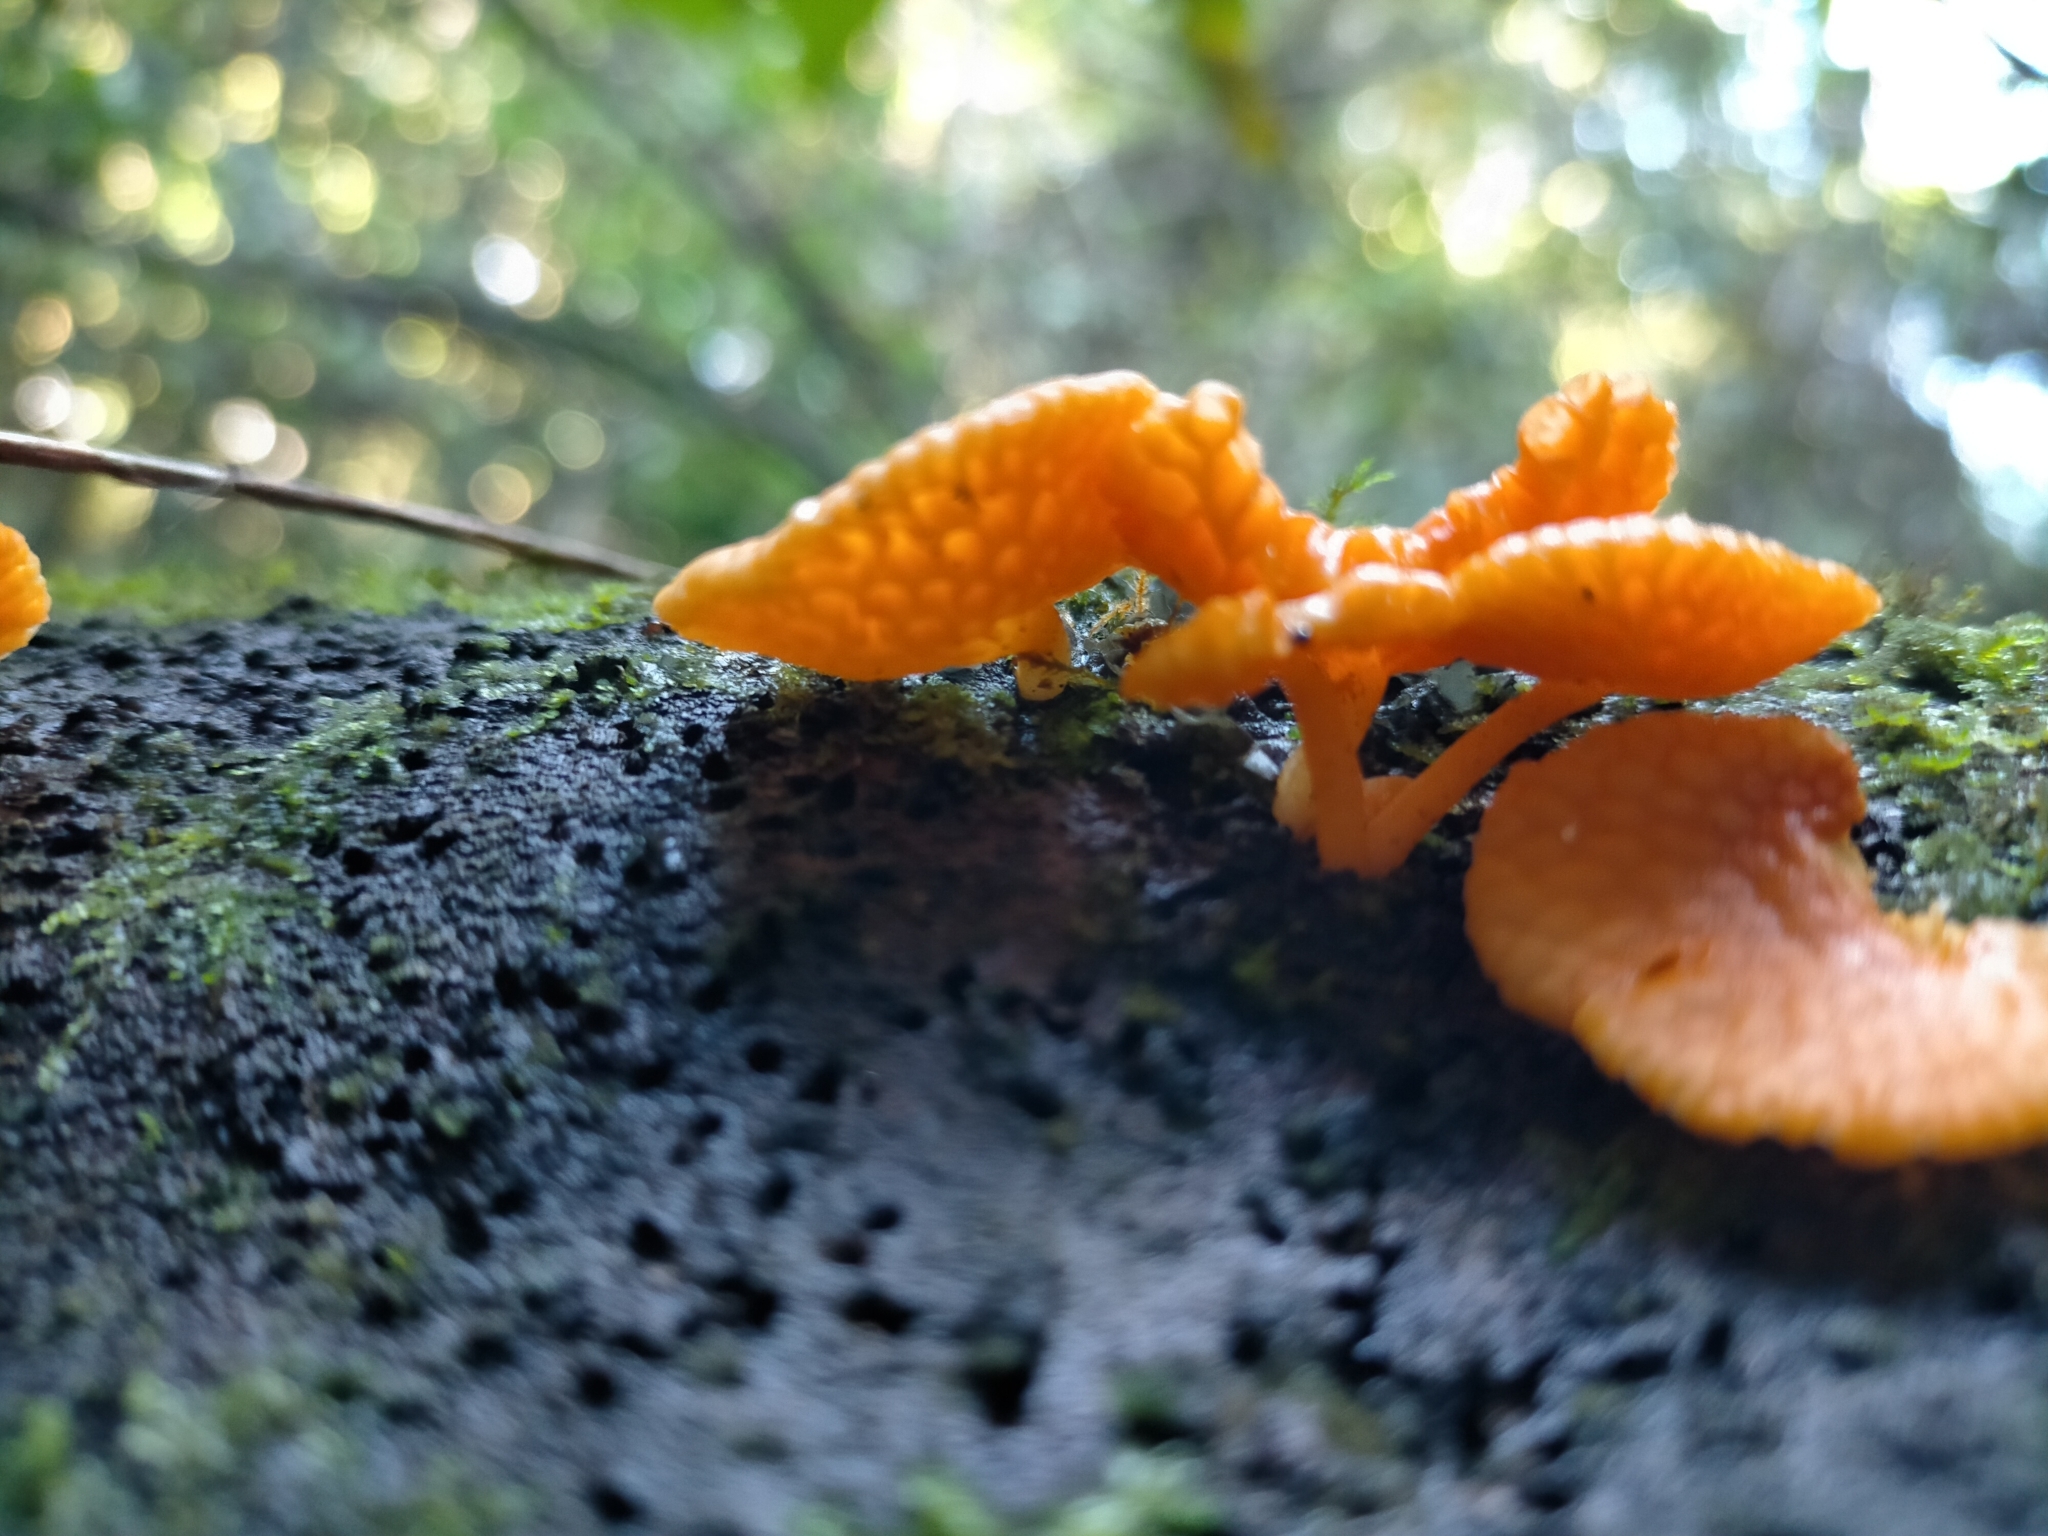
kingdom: Fungi
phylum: Basidiomycota
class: Agaricomycetes
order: Agaricales
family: Mycenaceae
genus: Favolaschia
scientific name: Favolaschia claudopus
